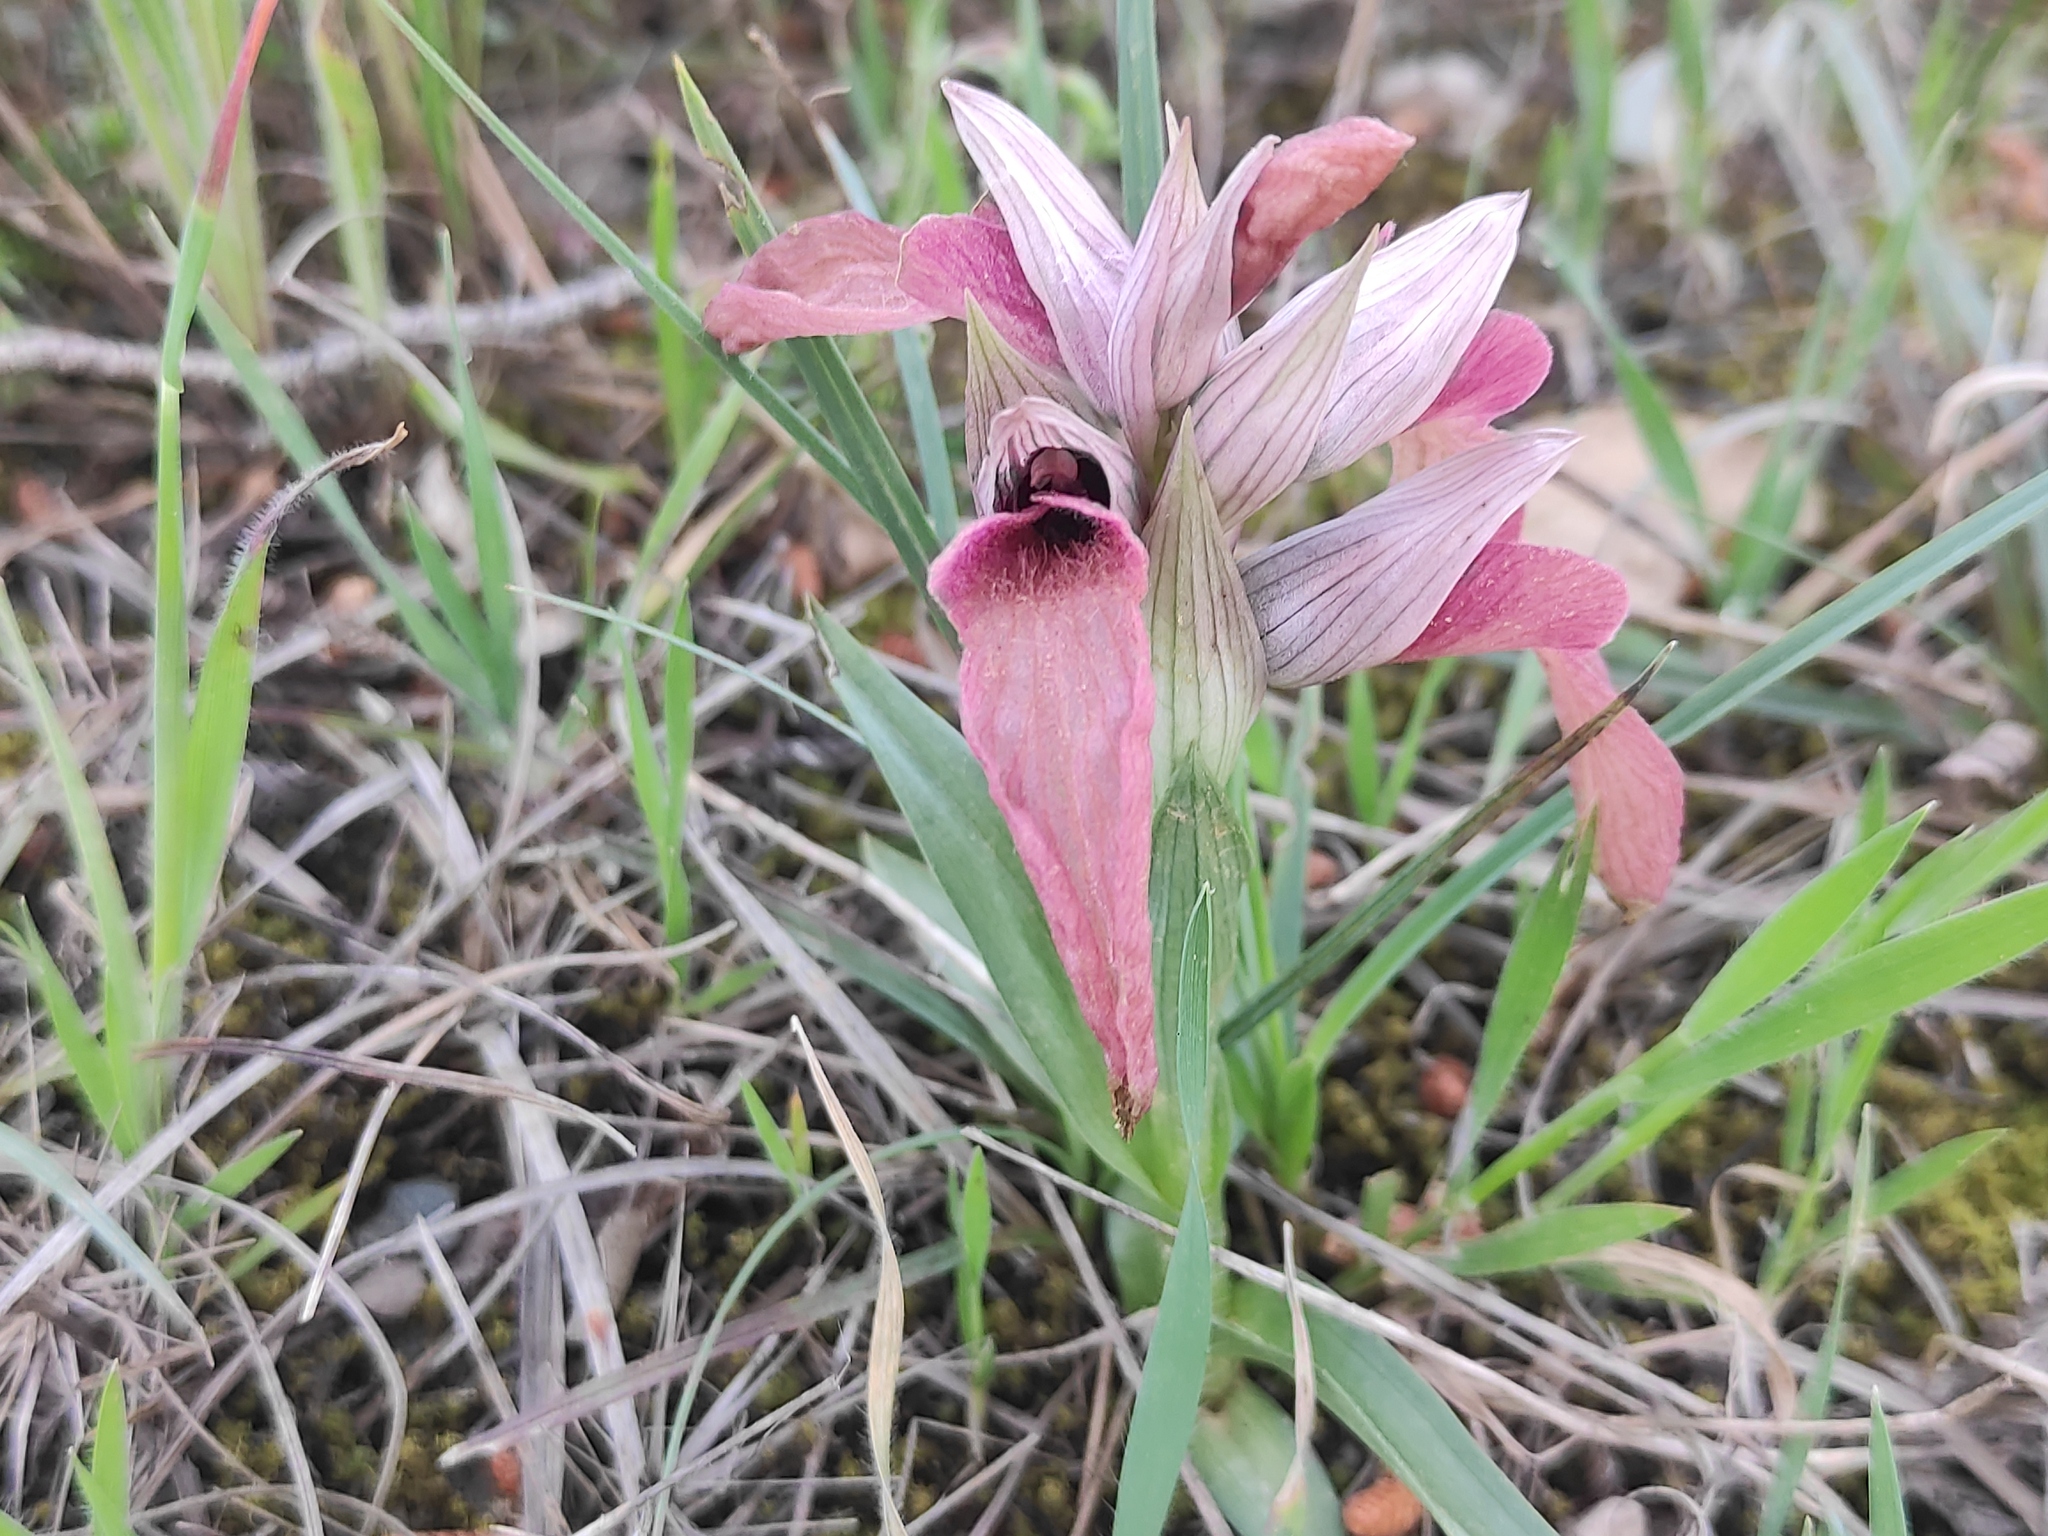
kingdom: Plantae
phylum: Tracheophyta
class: Liliopsida
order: Asparagales
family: Orchidaceae
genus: Serapias
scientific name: Serapias neglecta
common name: Neglected serapias
